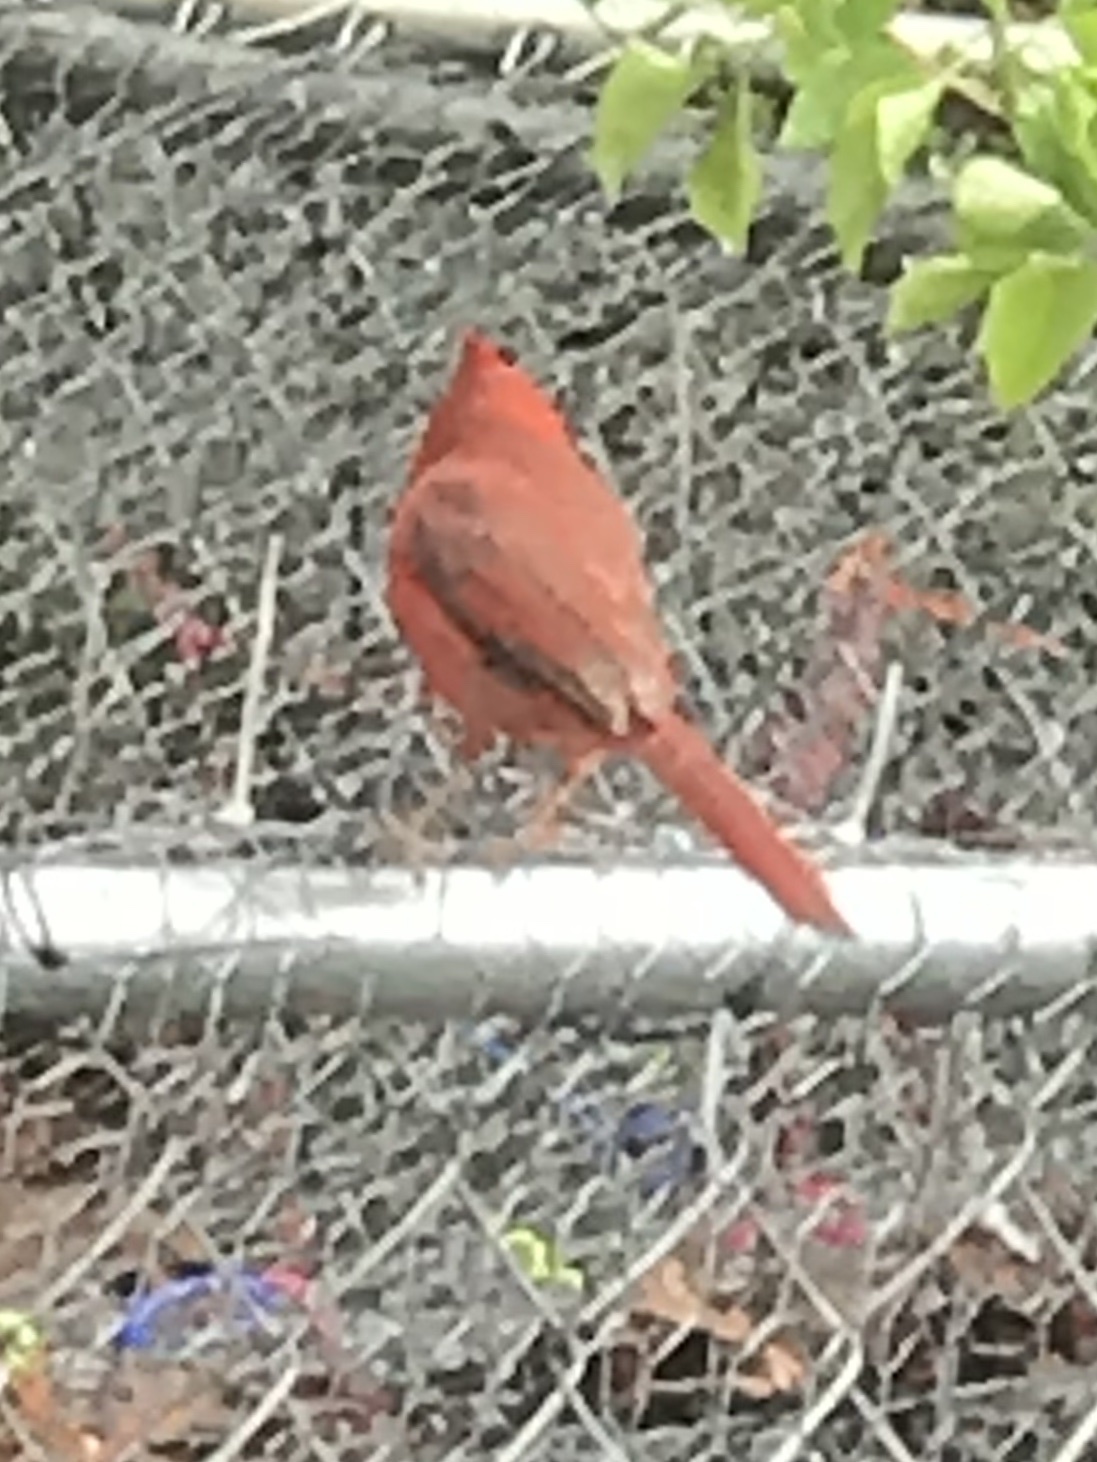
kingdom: Animalia
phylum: Chordata
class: Aves
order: Passeriformes
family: Cardinalidae
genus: Cardinalis
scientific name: Cardinalis cardinalis
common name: Northern cardinal
